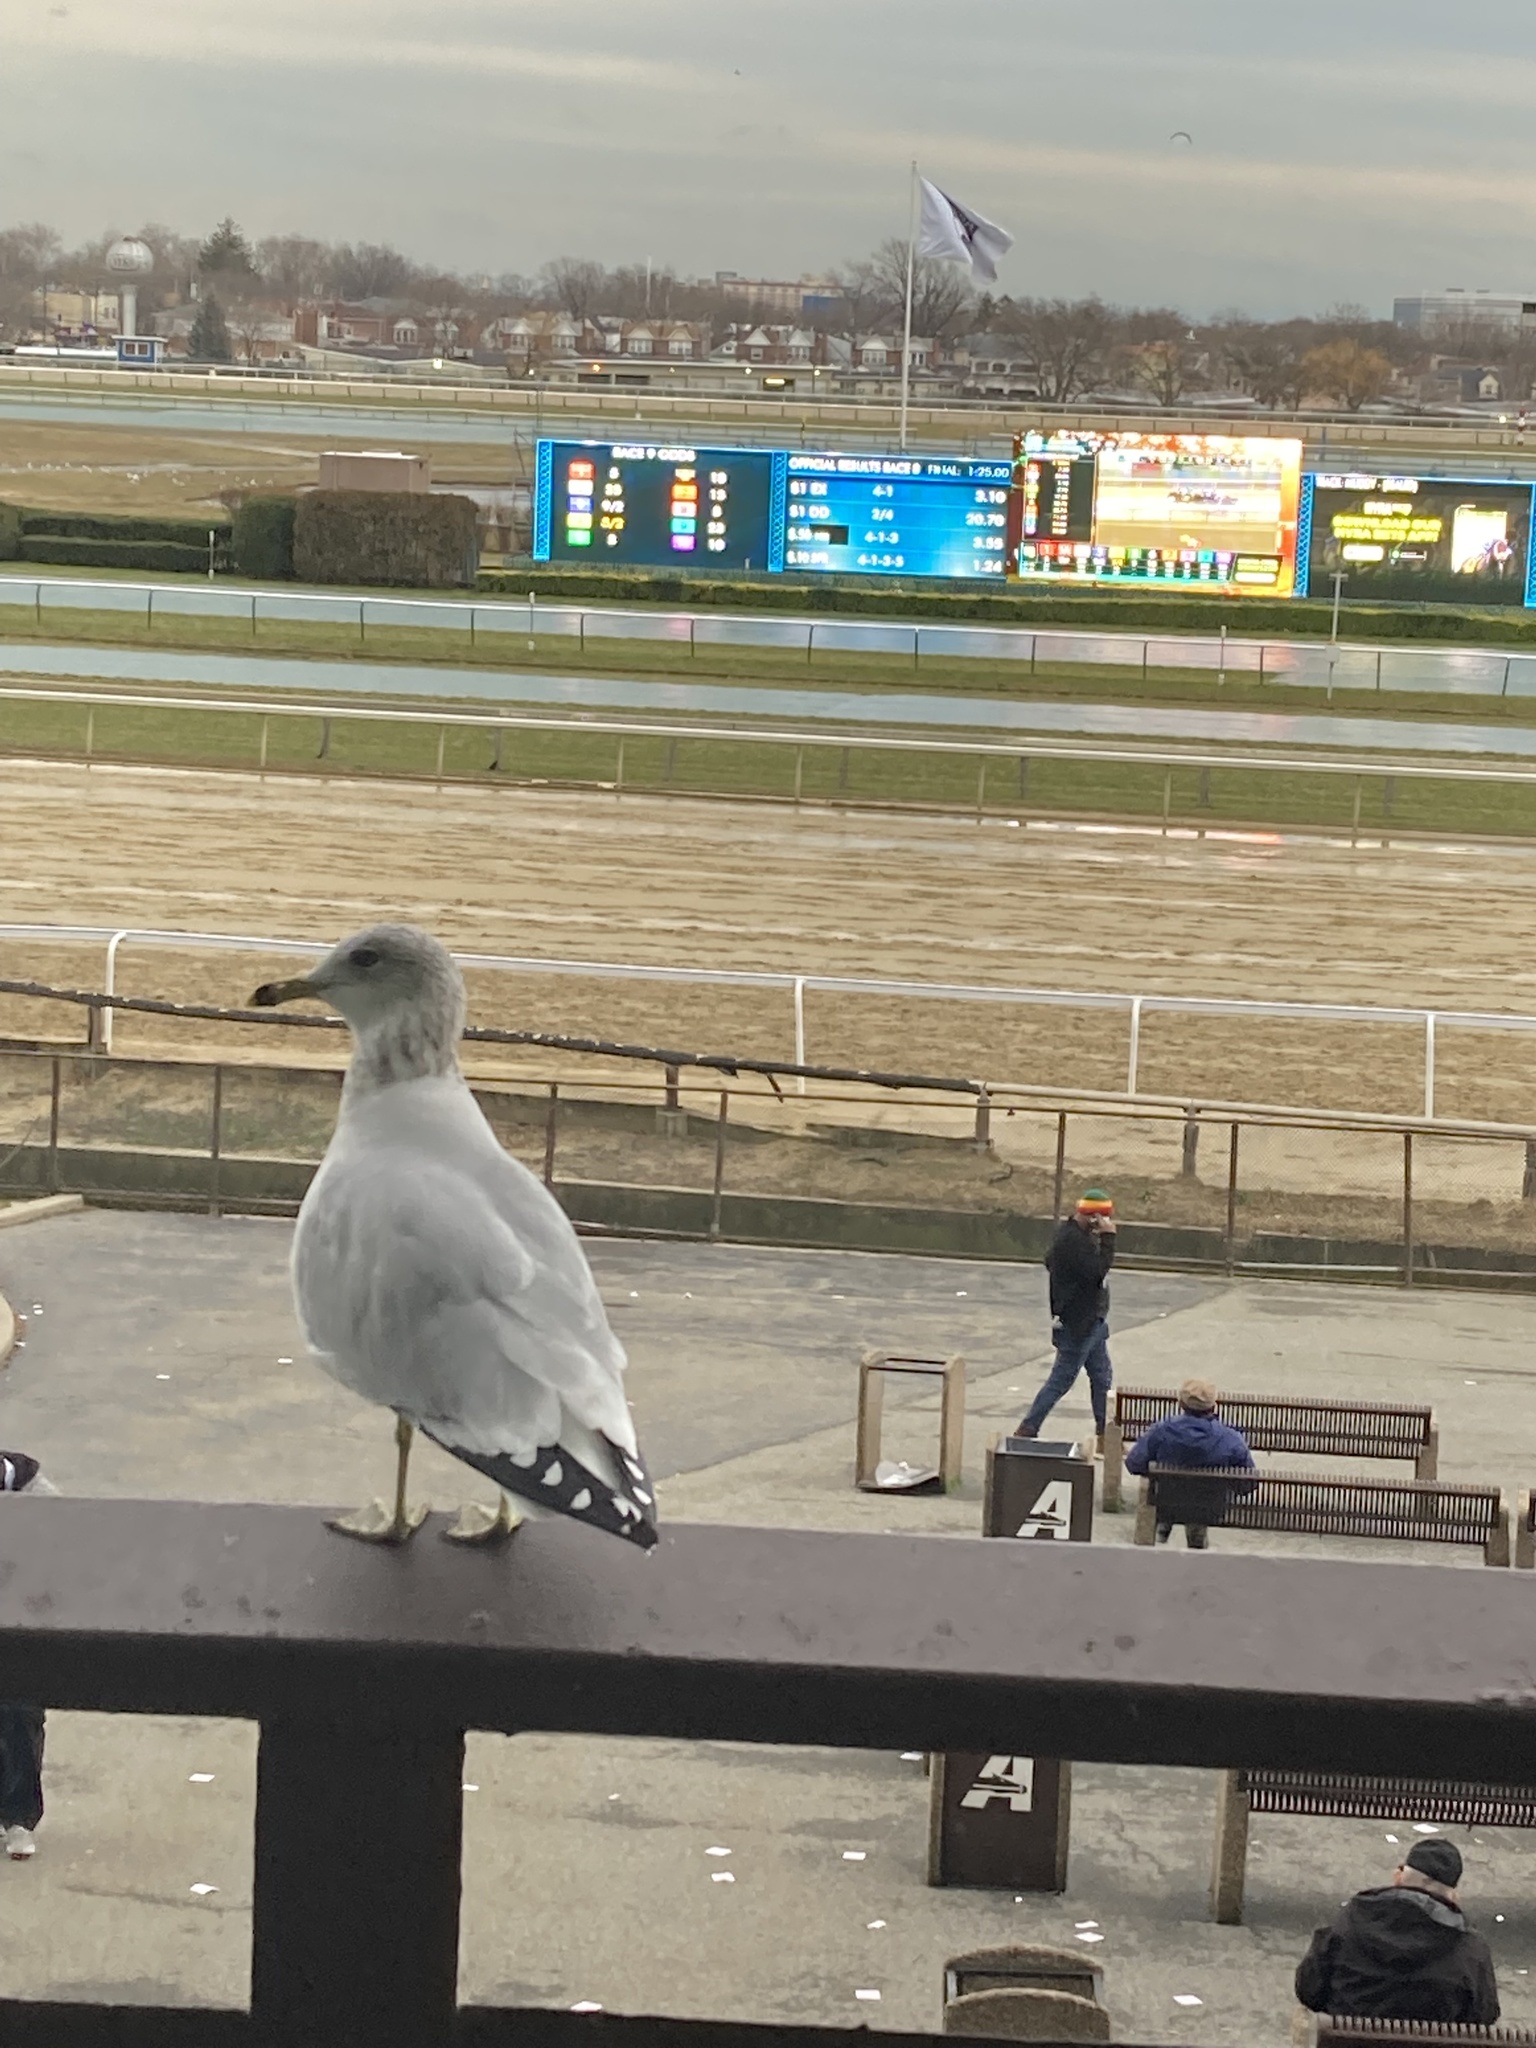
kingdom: Animalia
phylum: Chordata
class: Aves
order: Charadriiformes
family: Laridae
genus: Larus
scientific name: Larus delawarensis
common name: Ring-billed gull
